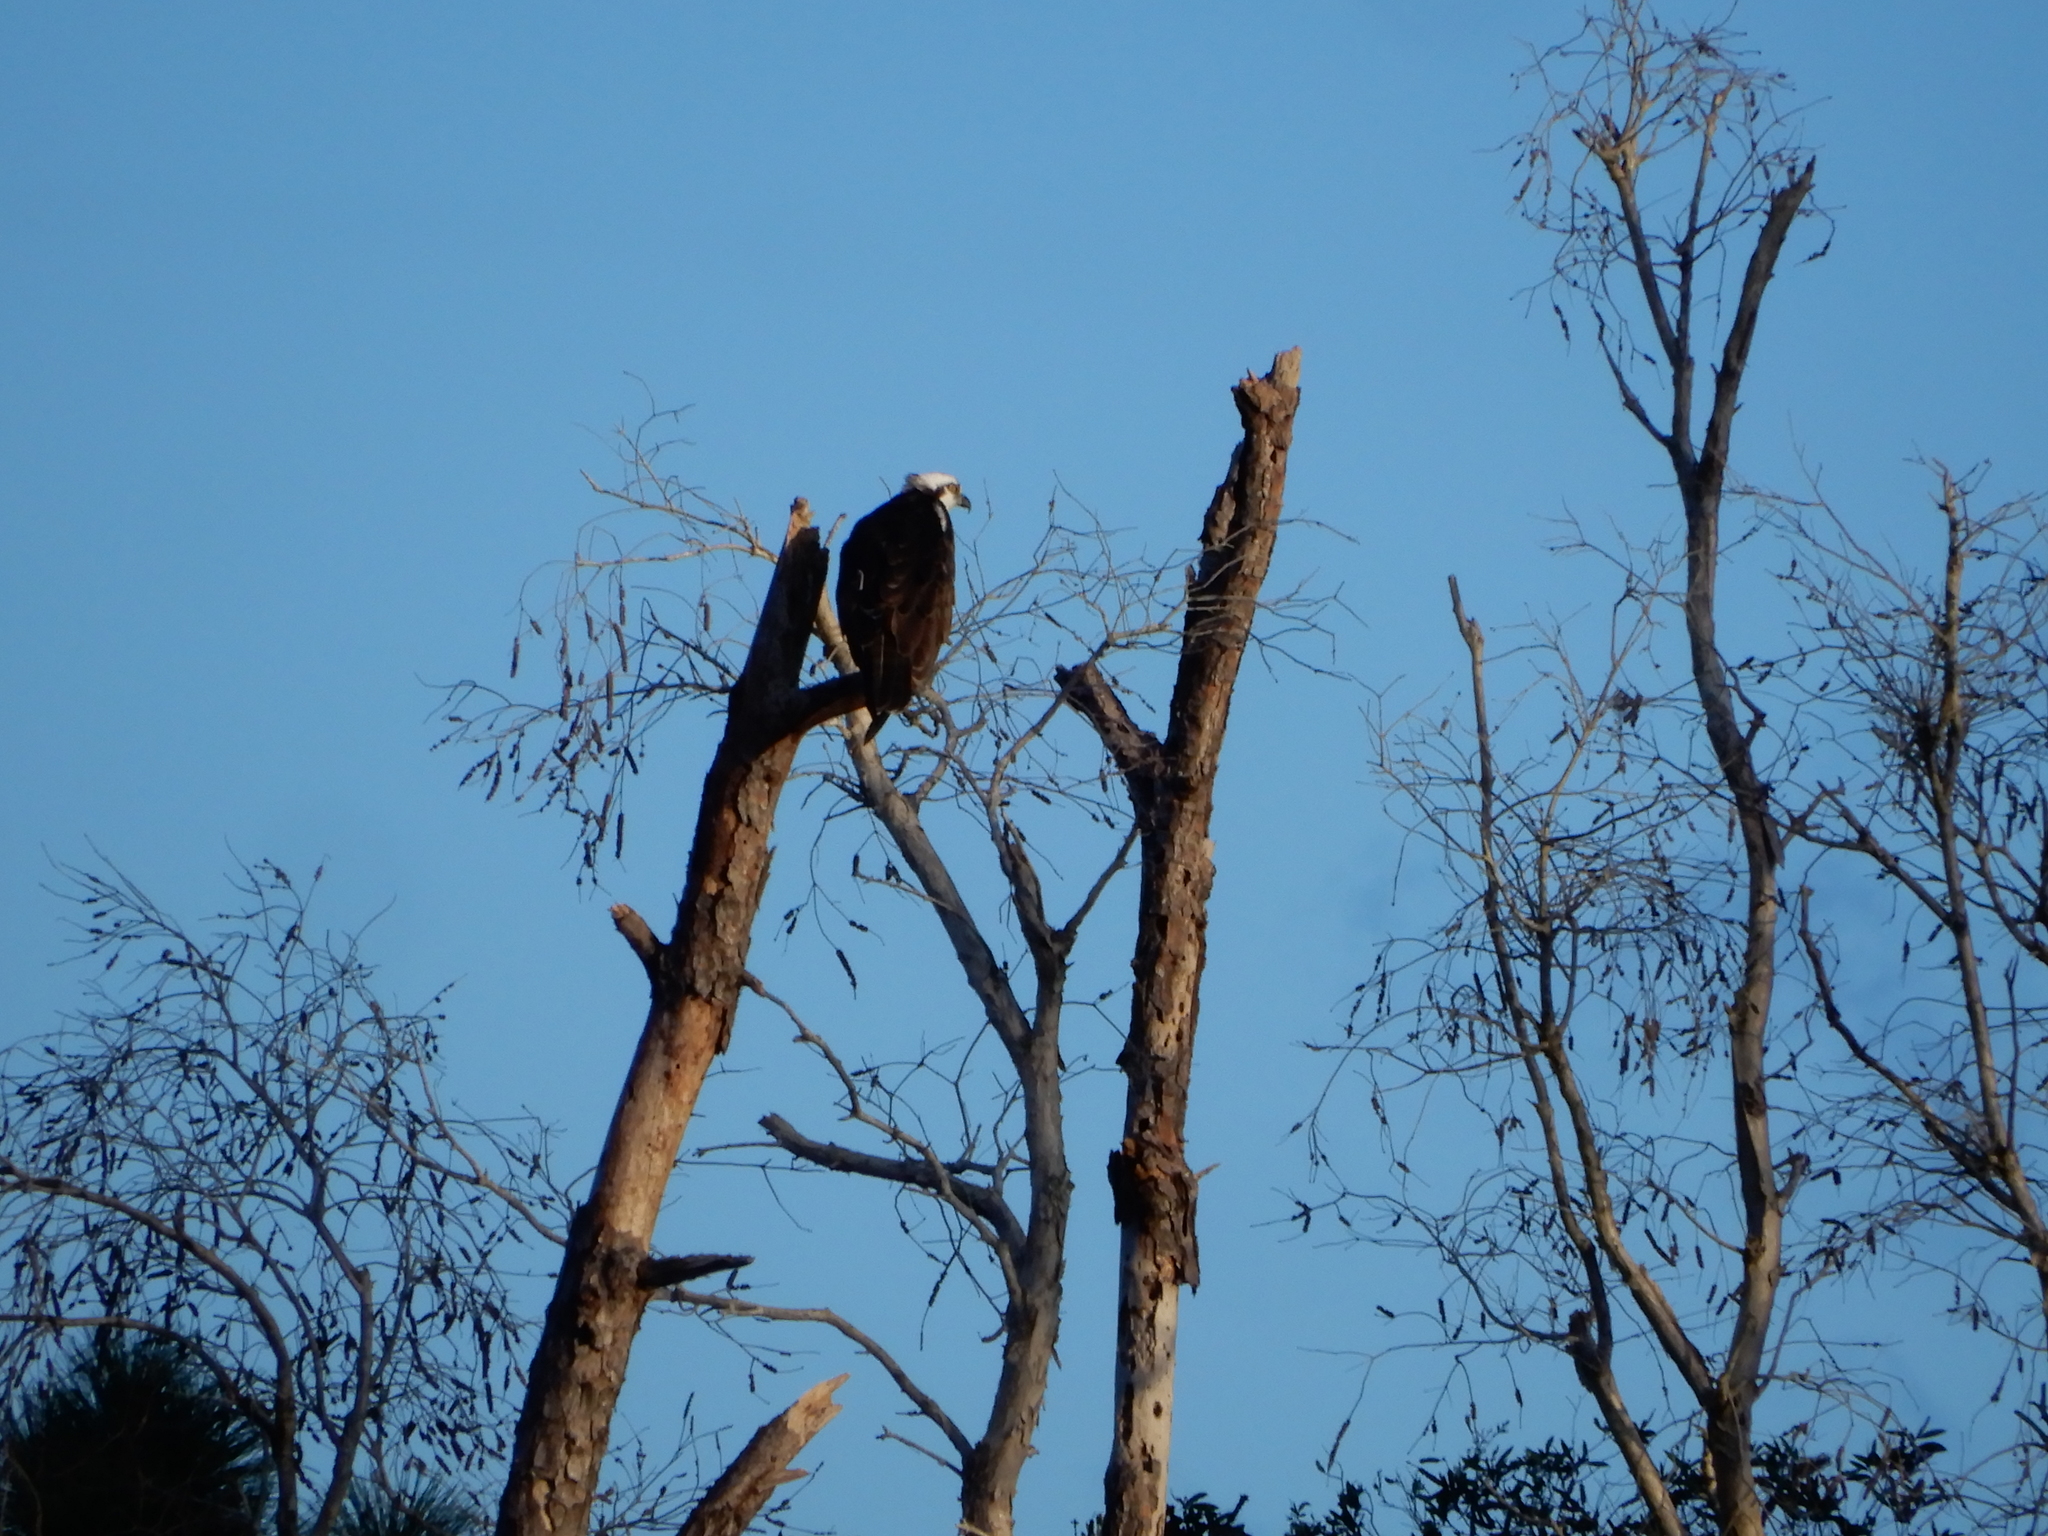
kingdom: Animalia
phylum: Chordata
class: Aves
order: Accipitriformes
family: Pandionidae
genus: Pandion
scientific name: Pandion haliaetus
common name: Osprey
